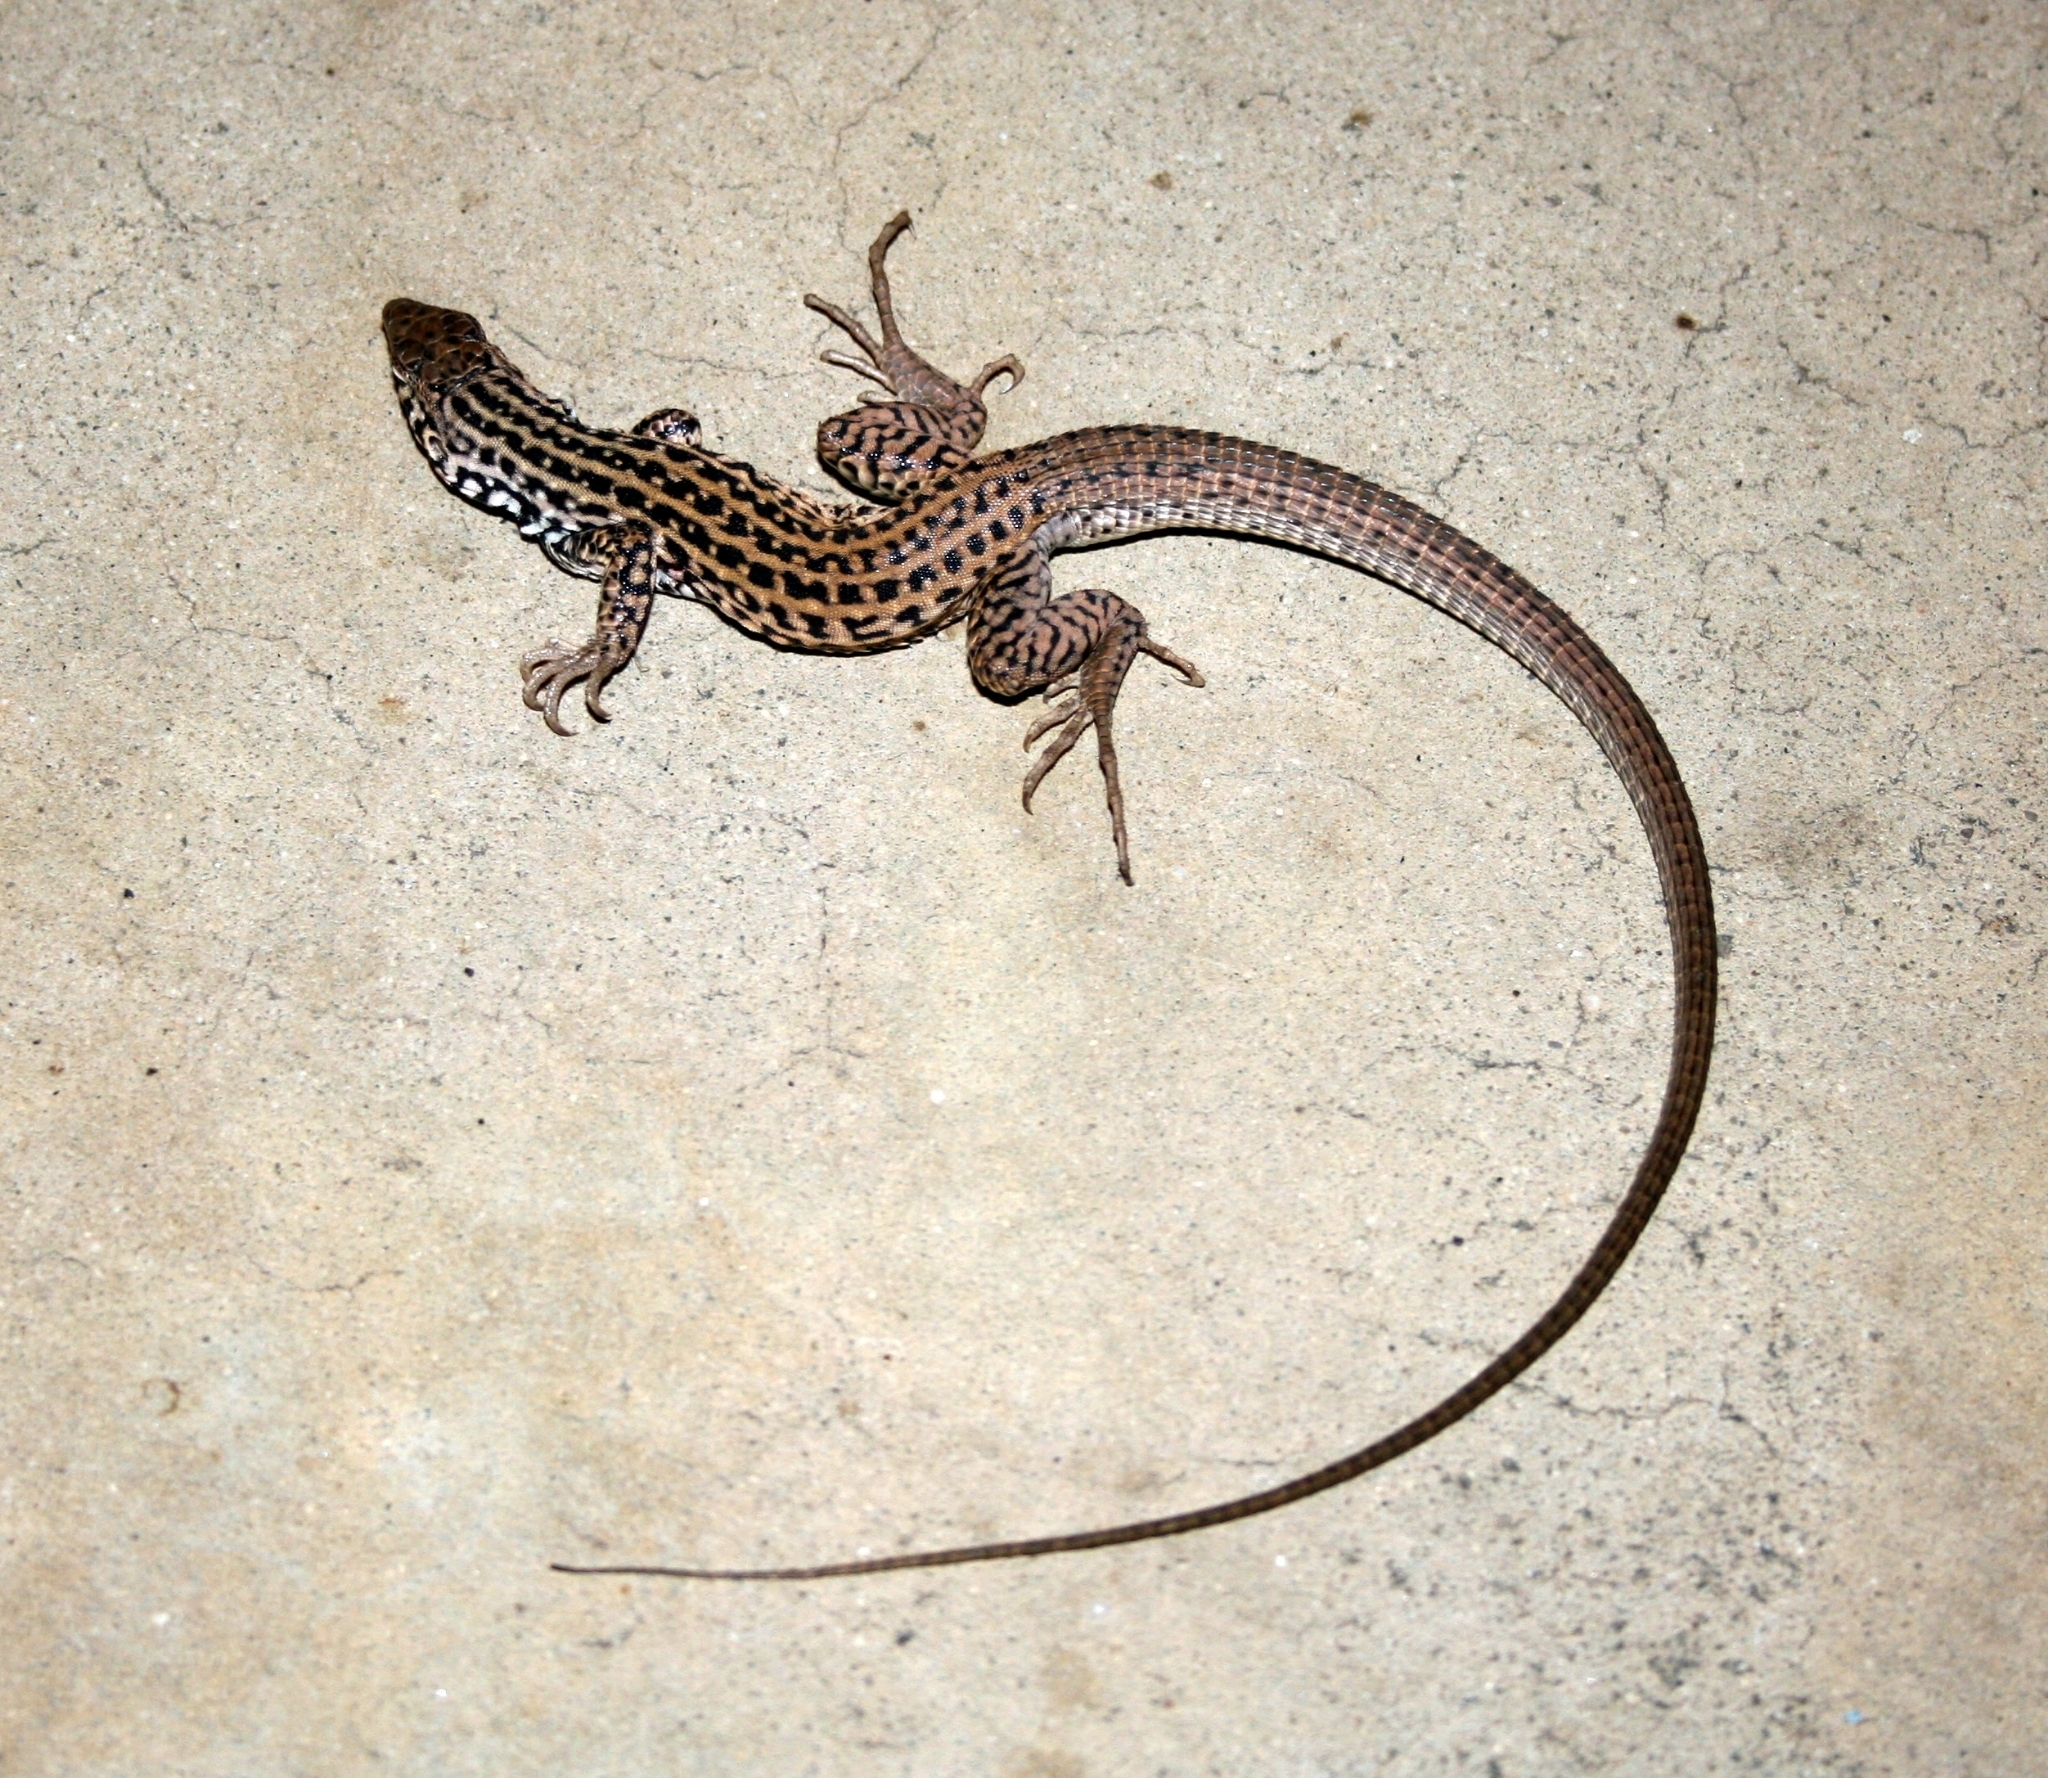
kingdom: Animalia
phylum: Chordata
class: Squamata
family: Teiidae
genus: Aspidoscelis
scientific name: Aspidoscelis tigris
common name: Tiger whiptail
